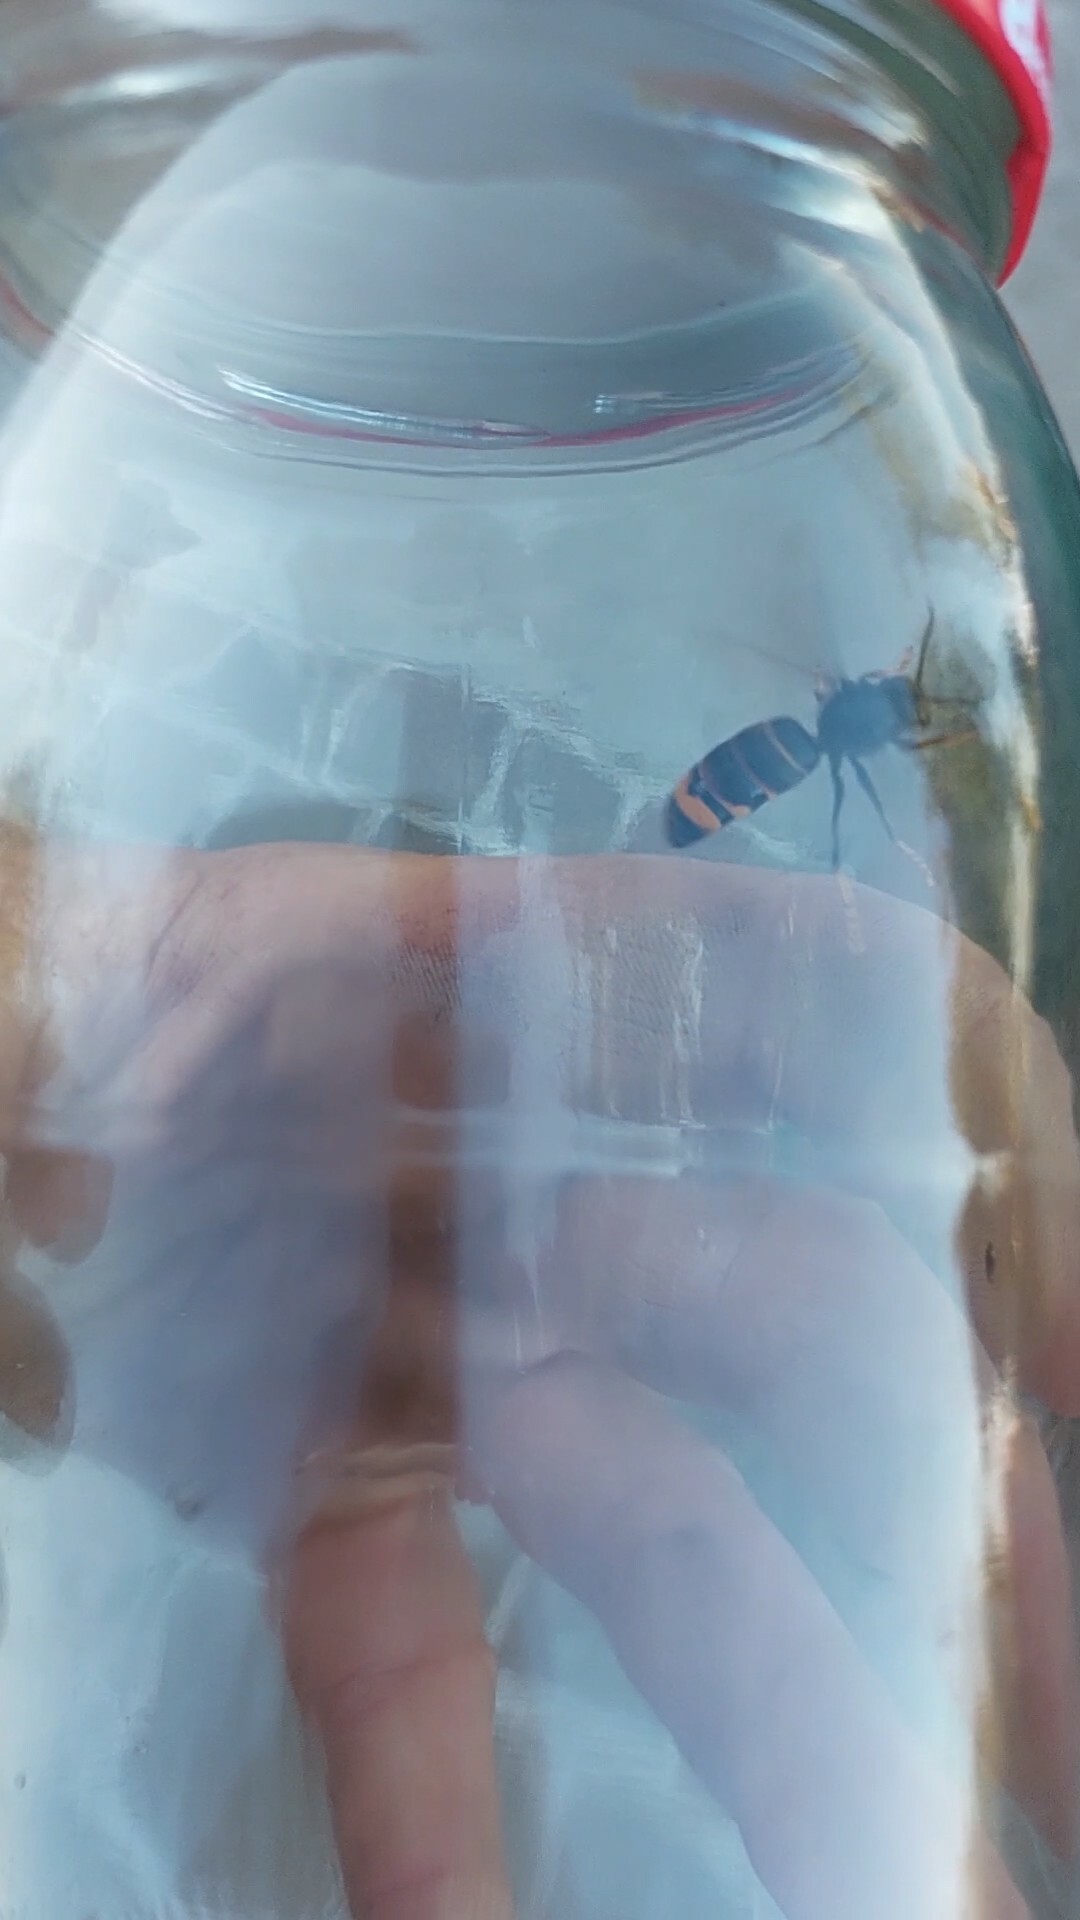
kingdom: Animalia
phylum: Arthropoda
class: Insecta
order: Hymenoptera
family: Vespidae
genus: Vespa
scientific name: Vespa velutina
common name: Asian hornet
